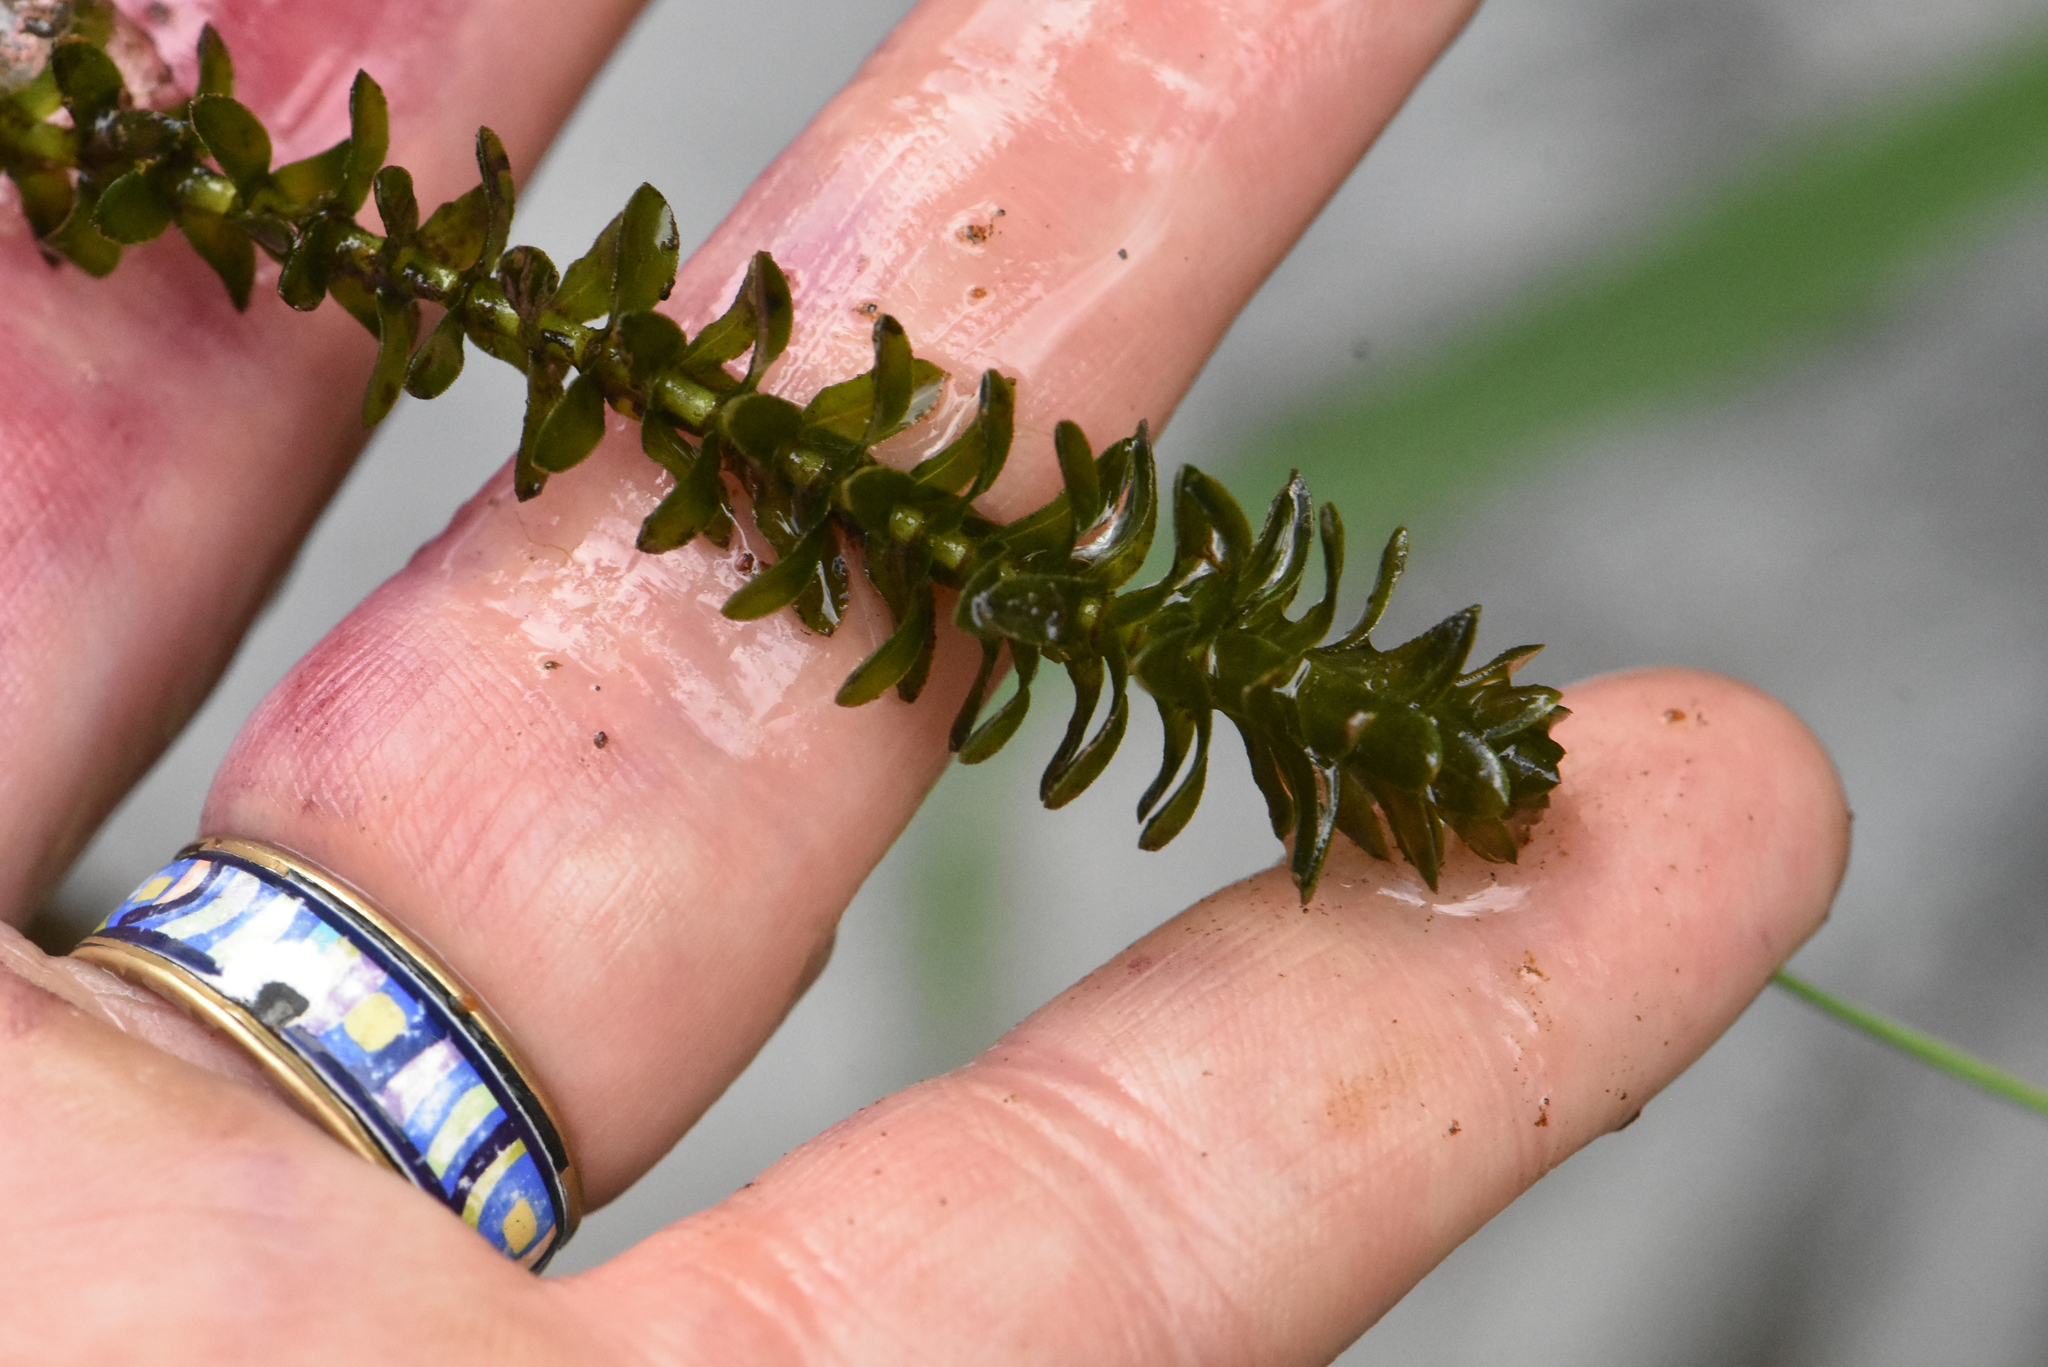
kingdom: Plantae
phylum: Tracheophyta
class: Liliopsida
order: Alismatales
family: Hydrocharitaceae
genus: Elodea
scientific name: Elodea canadensis
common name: Canadian waterweed
